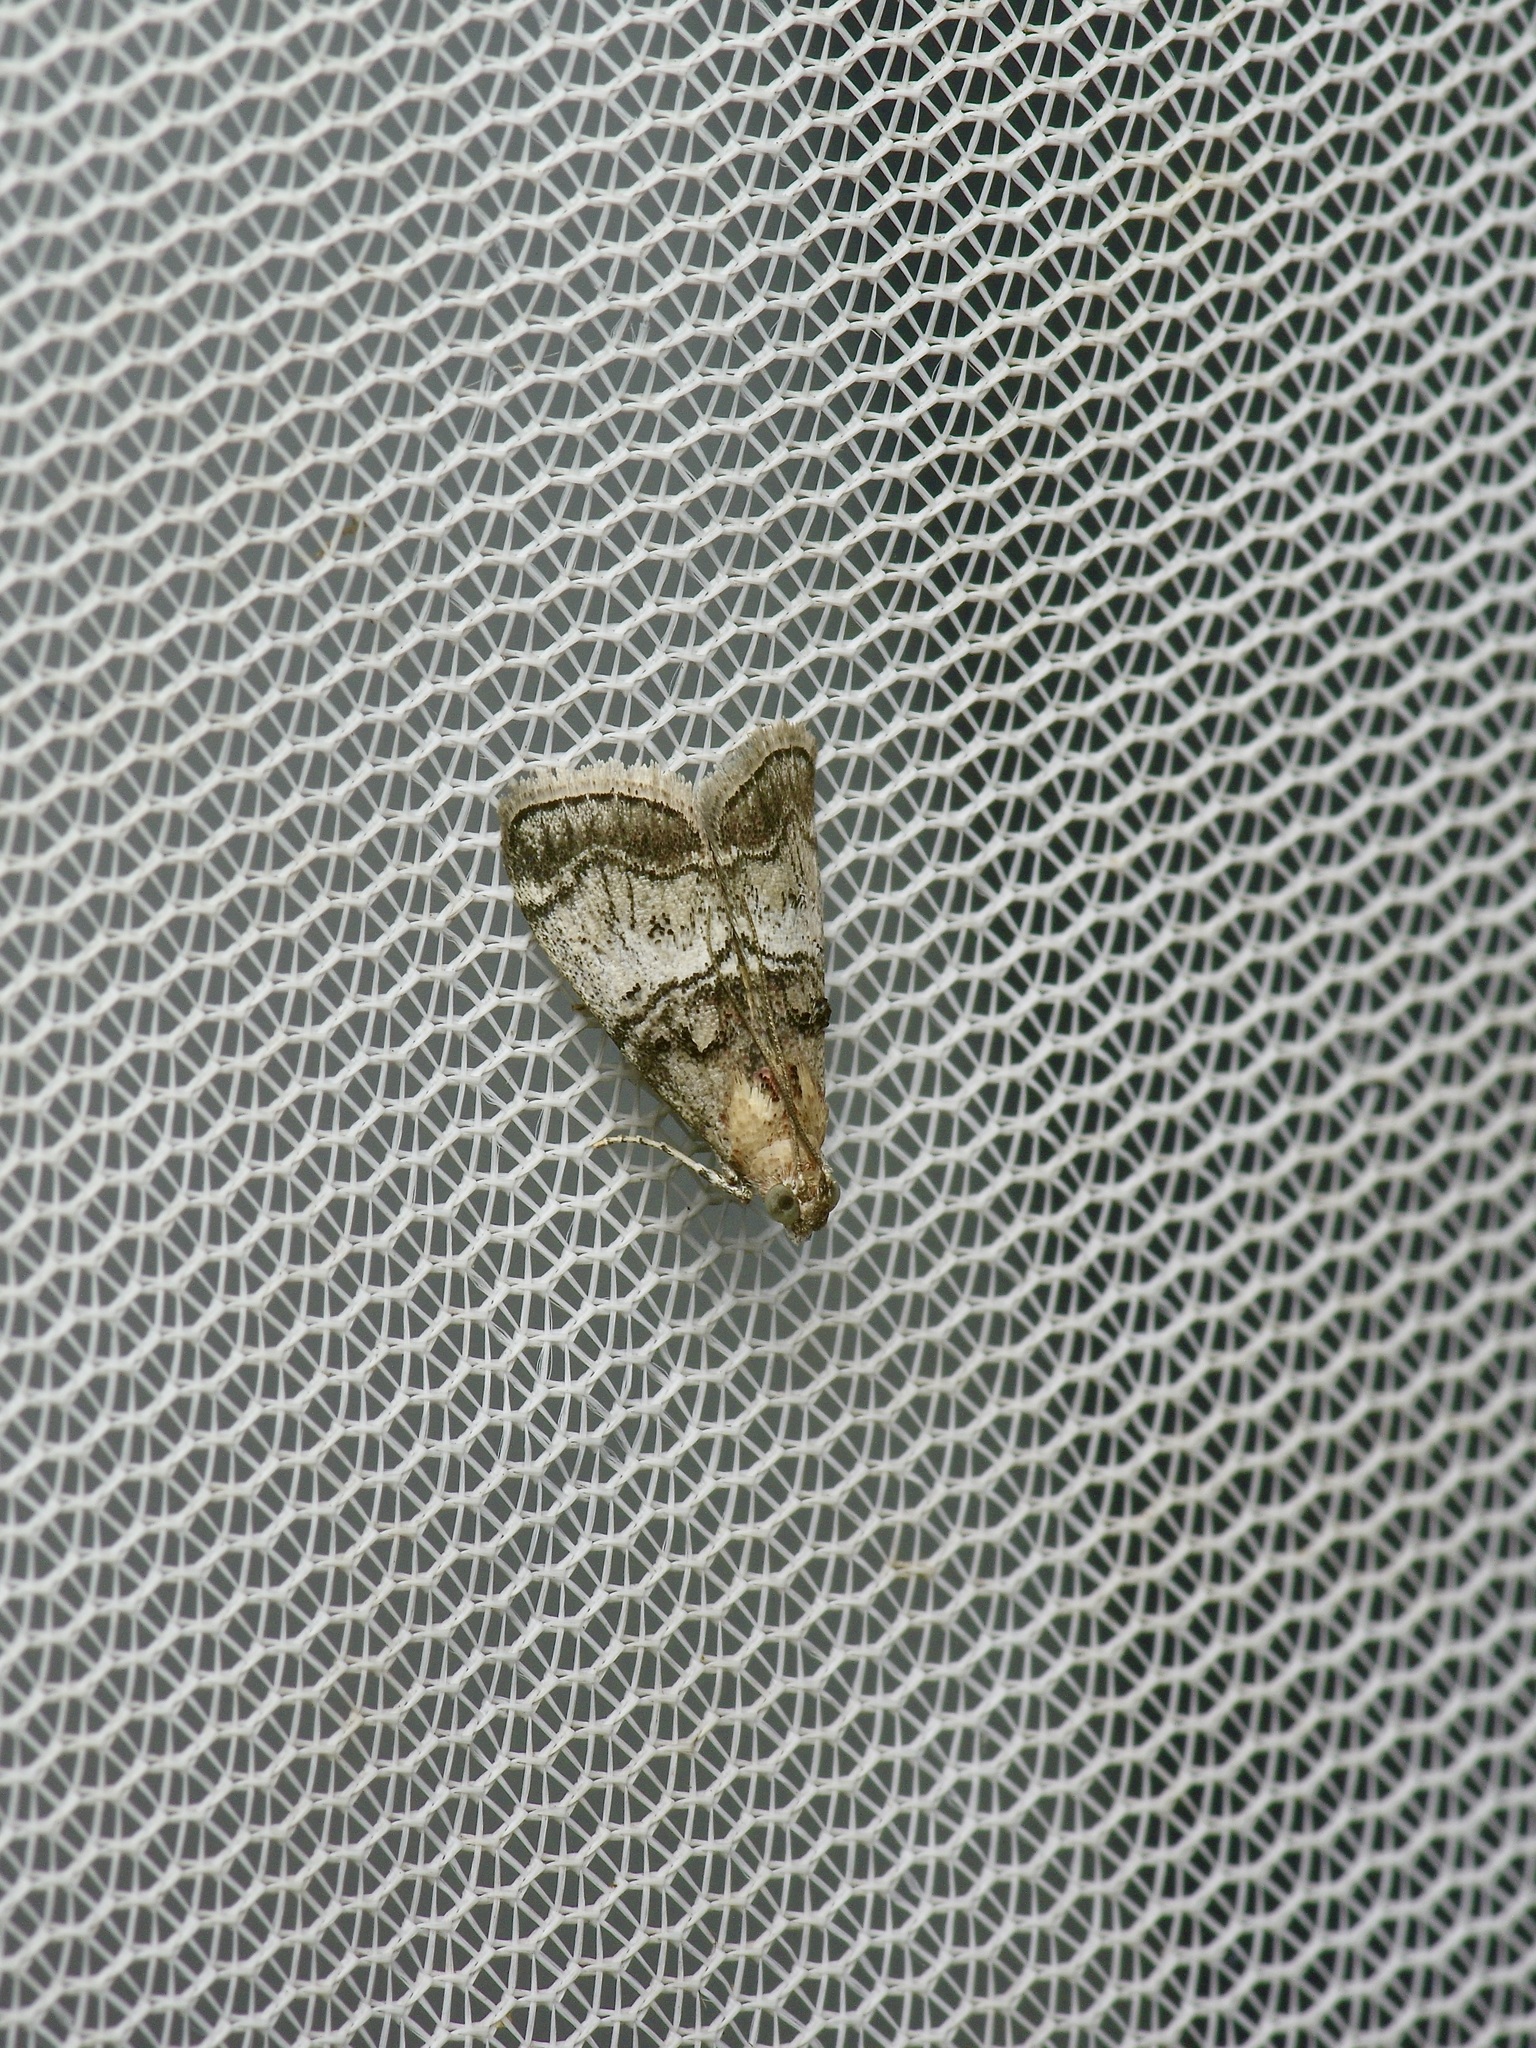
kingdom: Animalia
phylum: Arthropoda
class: Insecta
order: Lepidoptera
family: Pyralidae
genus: Pococera
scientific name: Pococera maritimalis
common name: Gray-banded pococera moth
